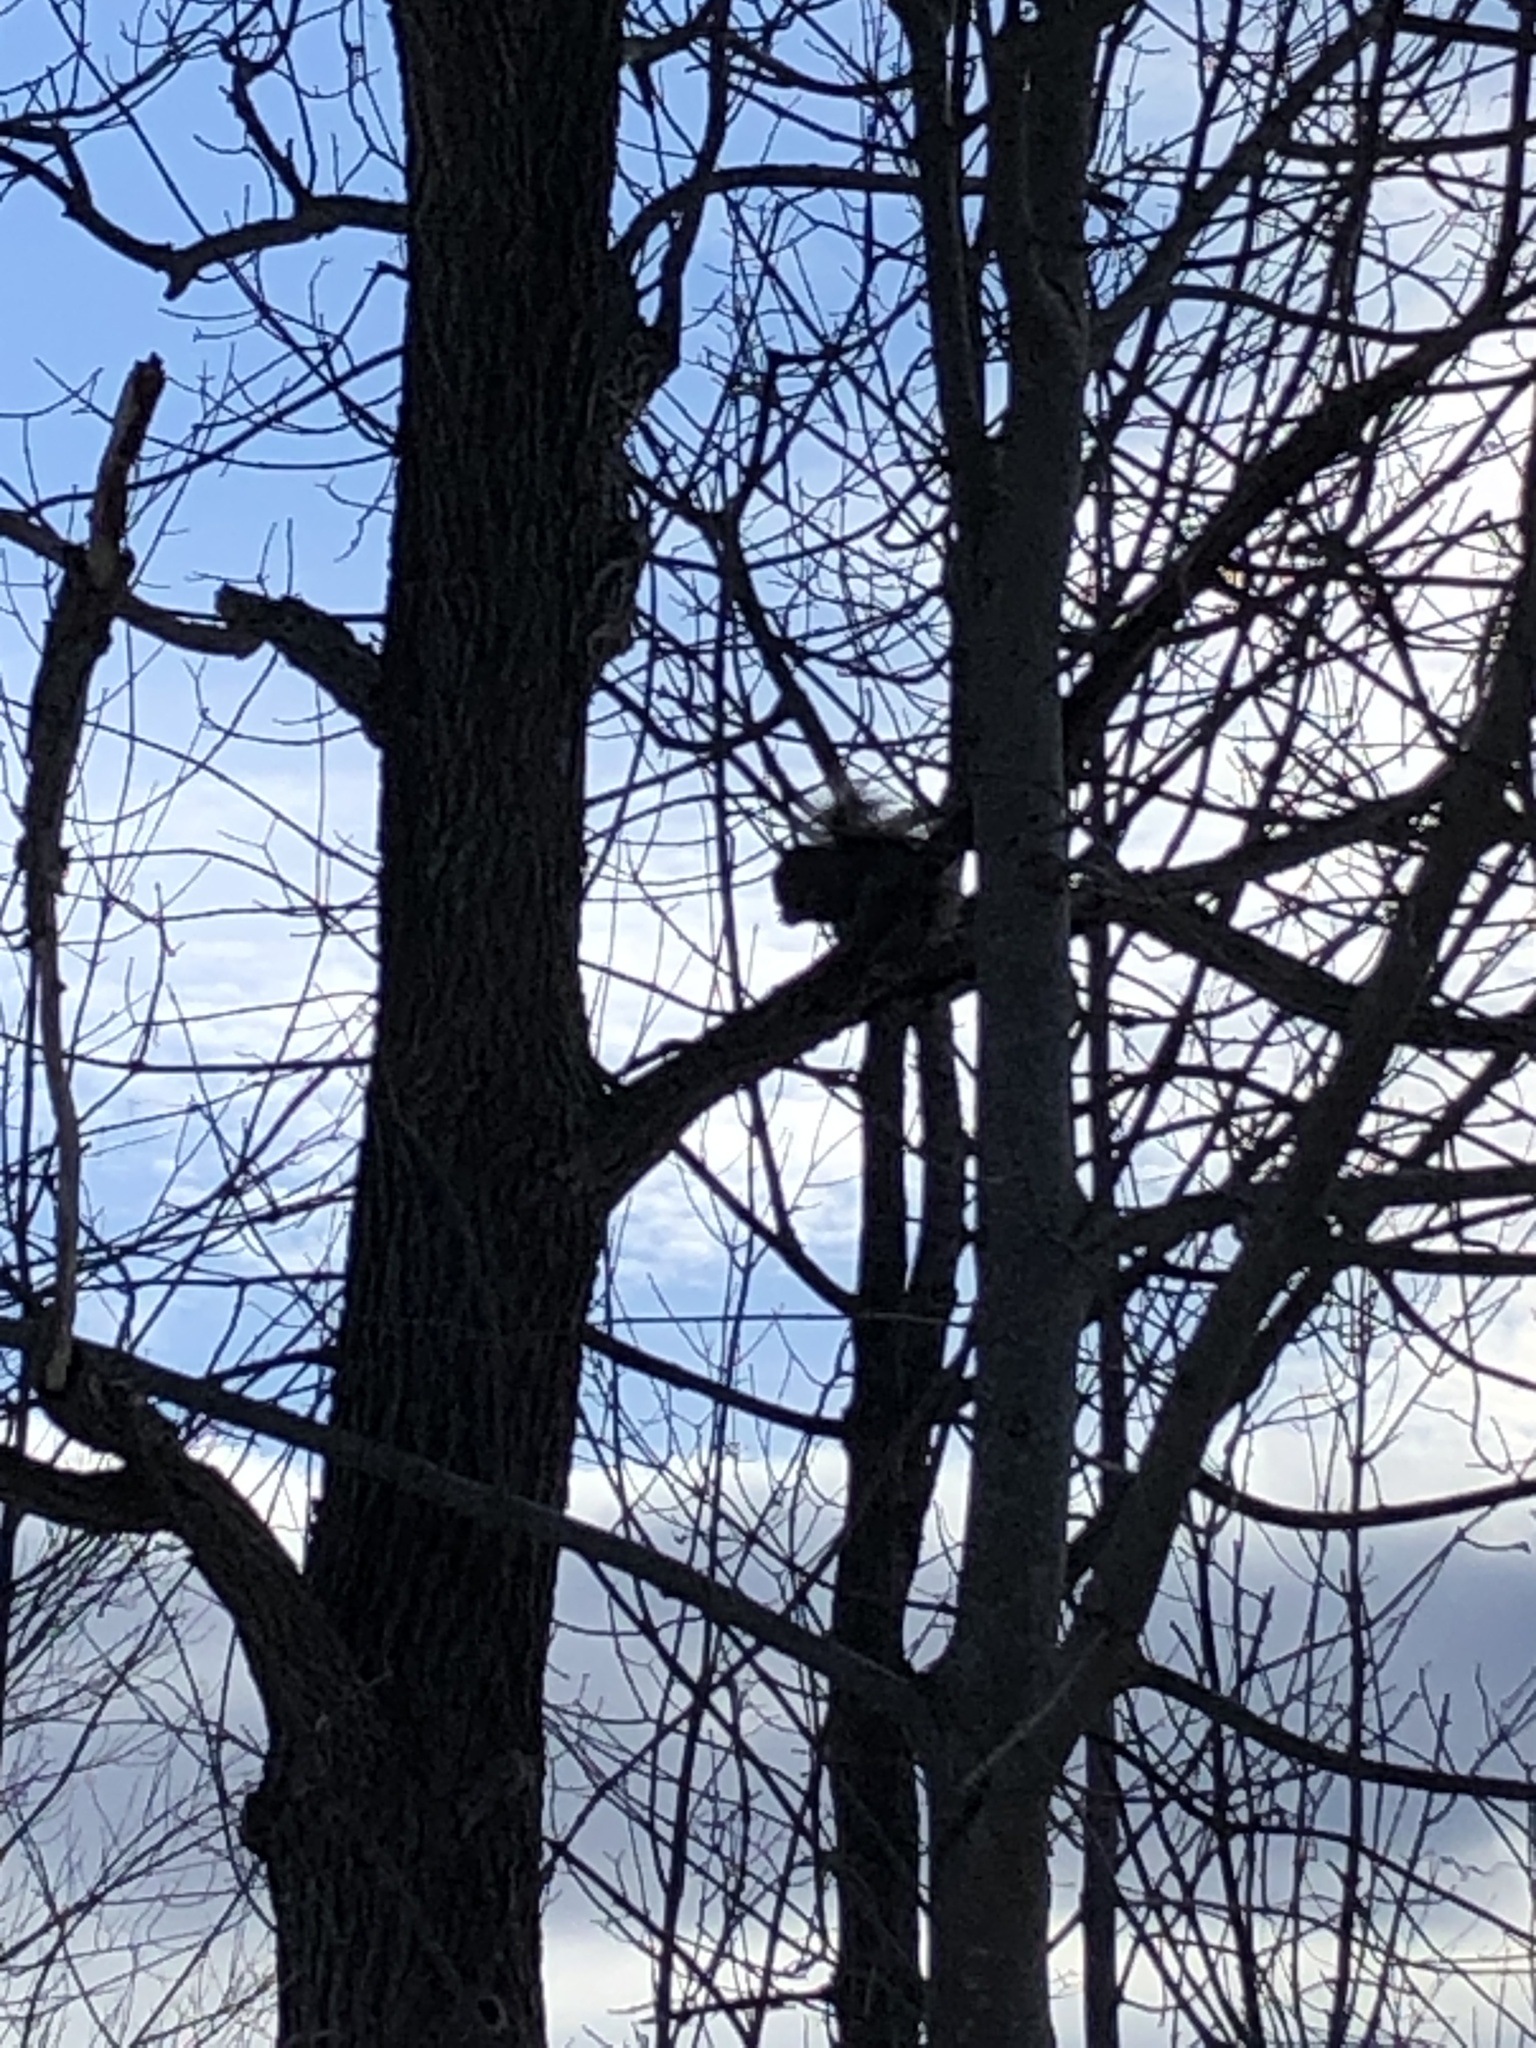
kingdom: Animalia
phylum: Chordata
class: Mammalia
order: Rodentia
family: Sciuridae
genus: Sciurus
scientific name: Sciurus carolinensis
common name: Eastern gray squirrel
